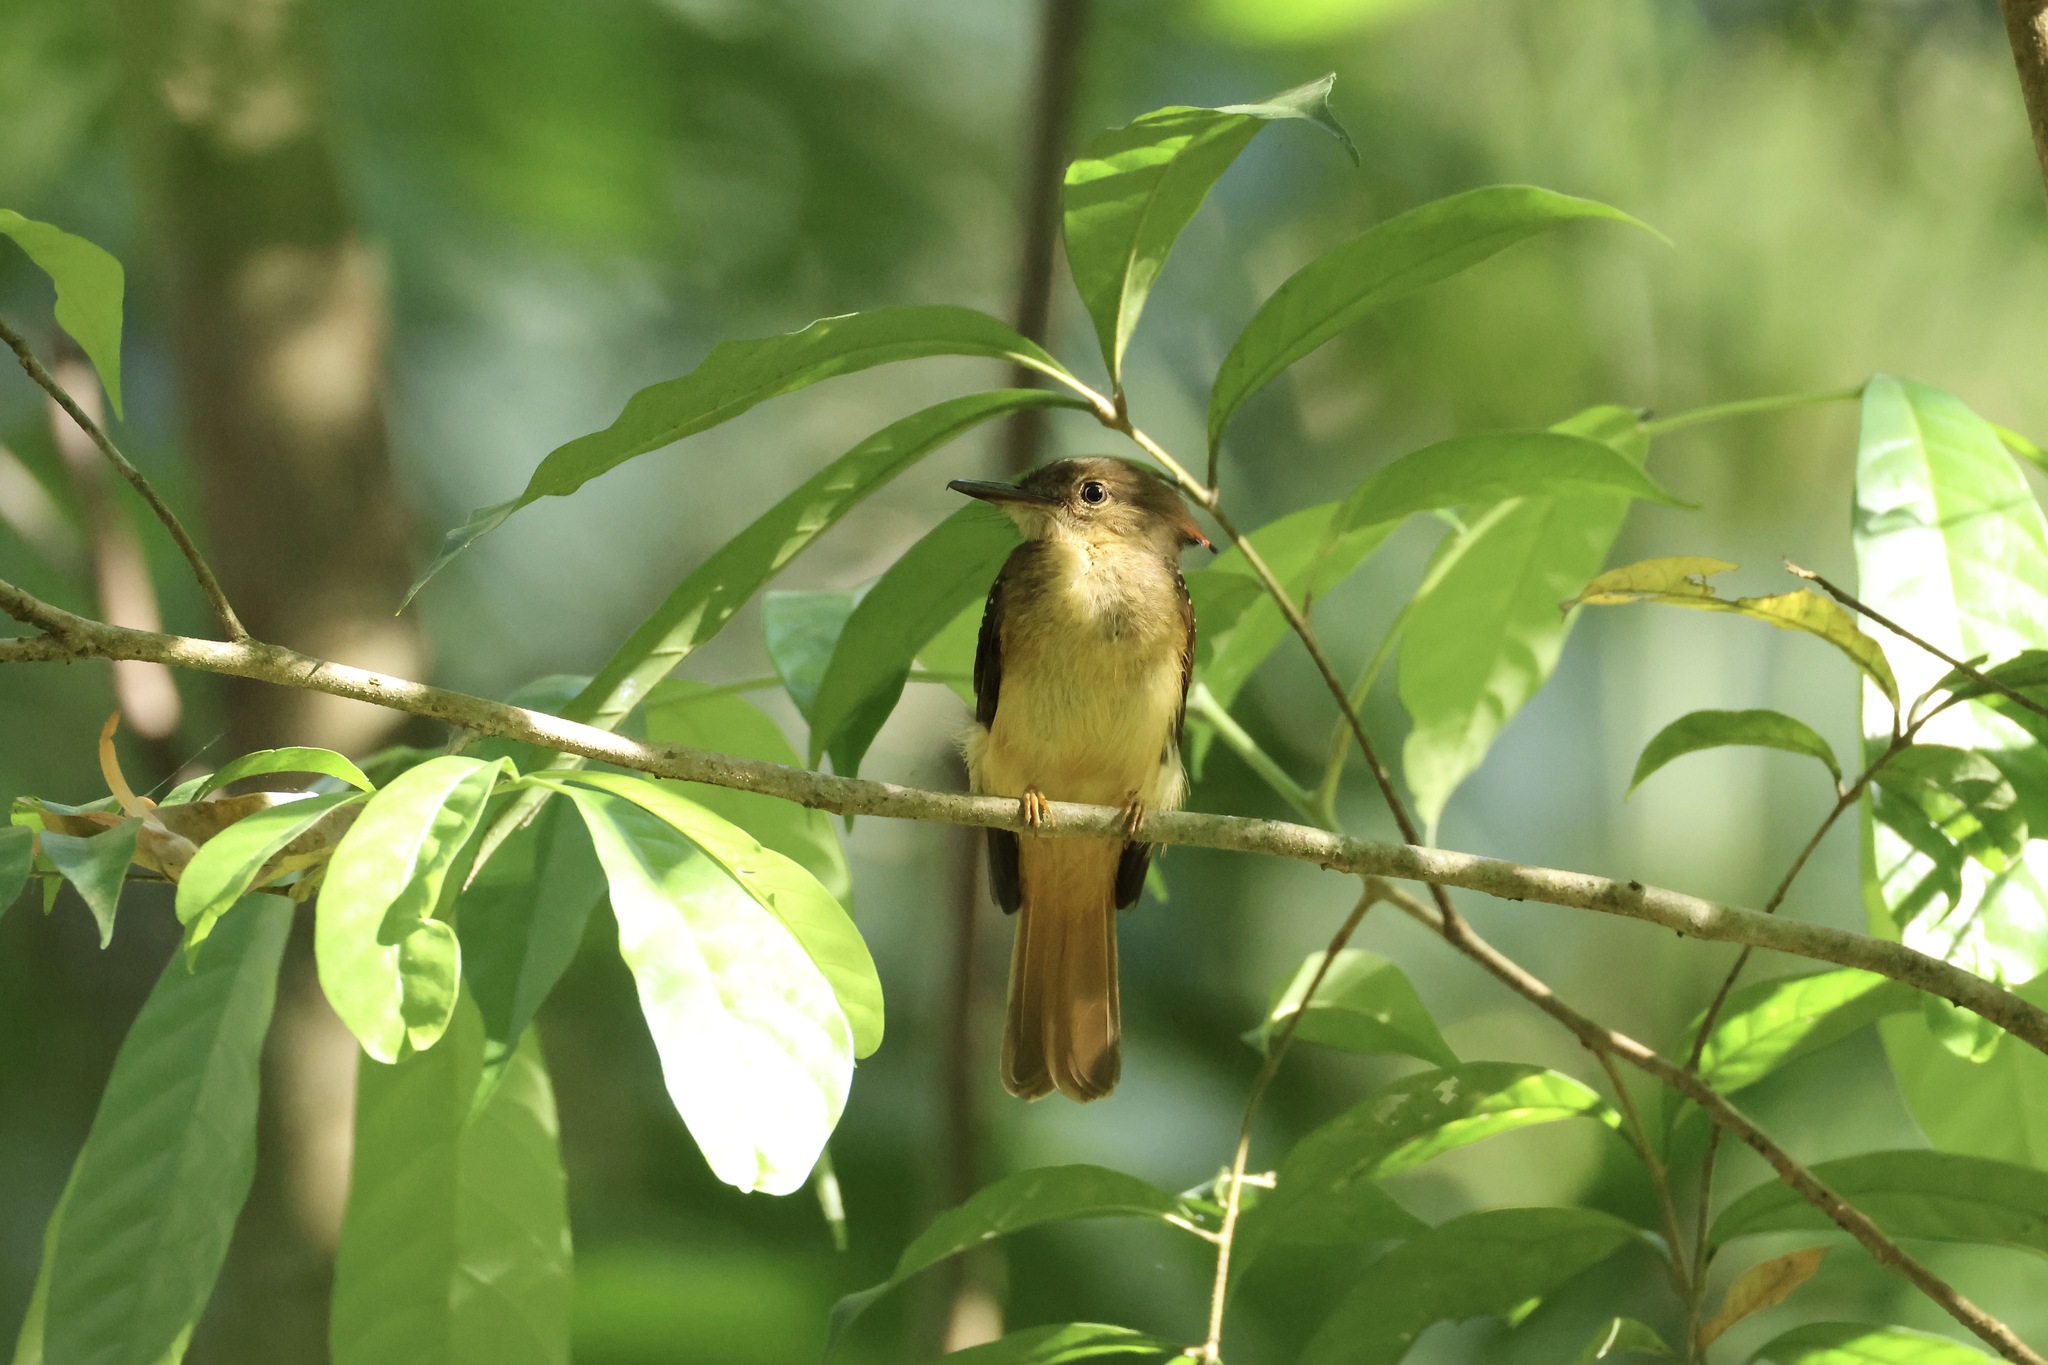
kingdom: Animalia
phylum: Chordata
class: Aves
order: Passeriformes
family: Tyrannidae
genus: Onychorhynchus
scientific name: Onychorhynchus coronatus
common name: Royal flycatcher
